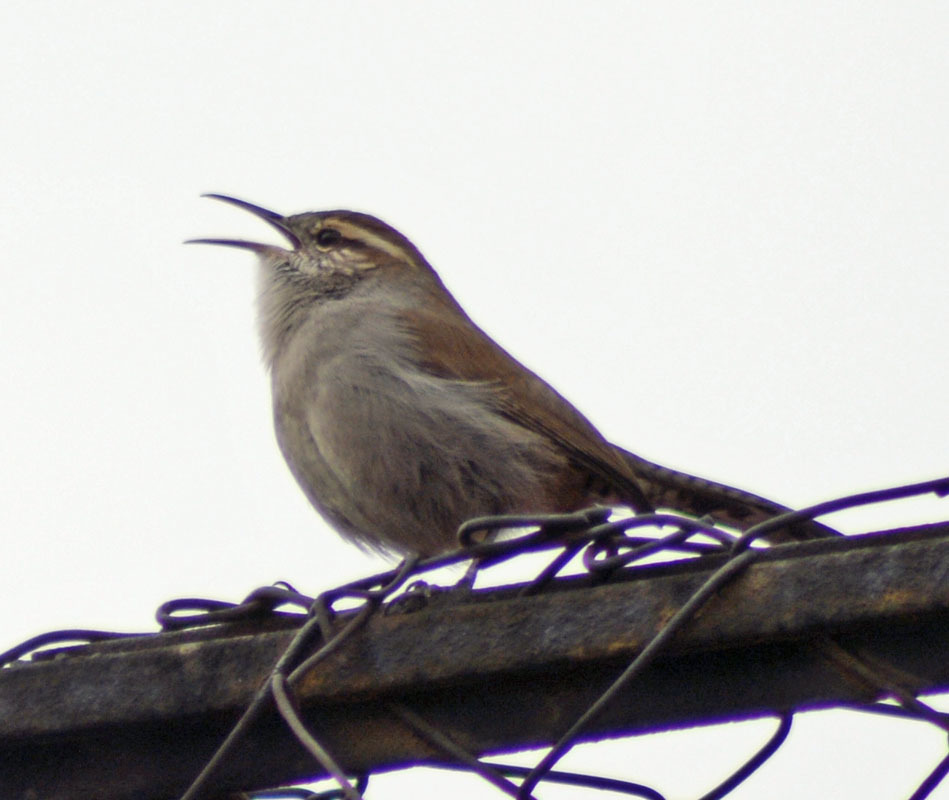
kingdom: Animalia
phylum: Chordata
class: Aves
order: Passeriformes
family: Troglodytidae
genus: Thryomanes
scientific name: Thryomanes bewickii
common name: Bewick's wren
